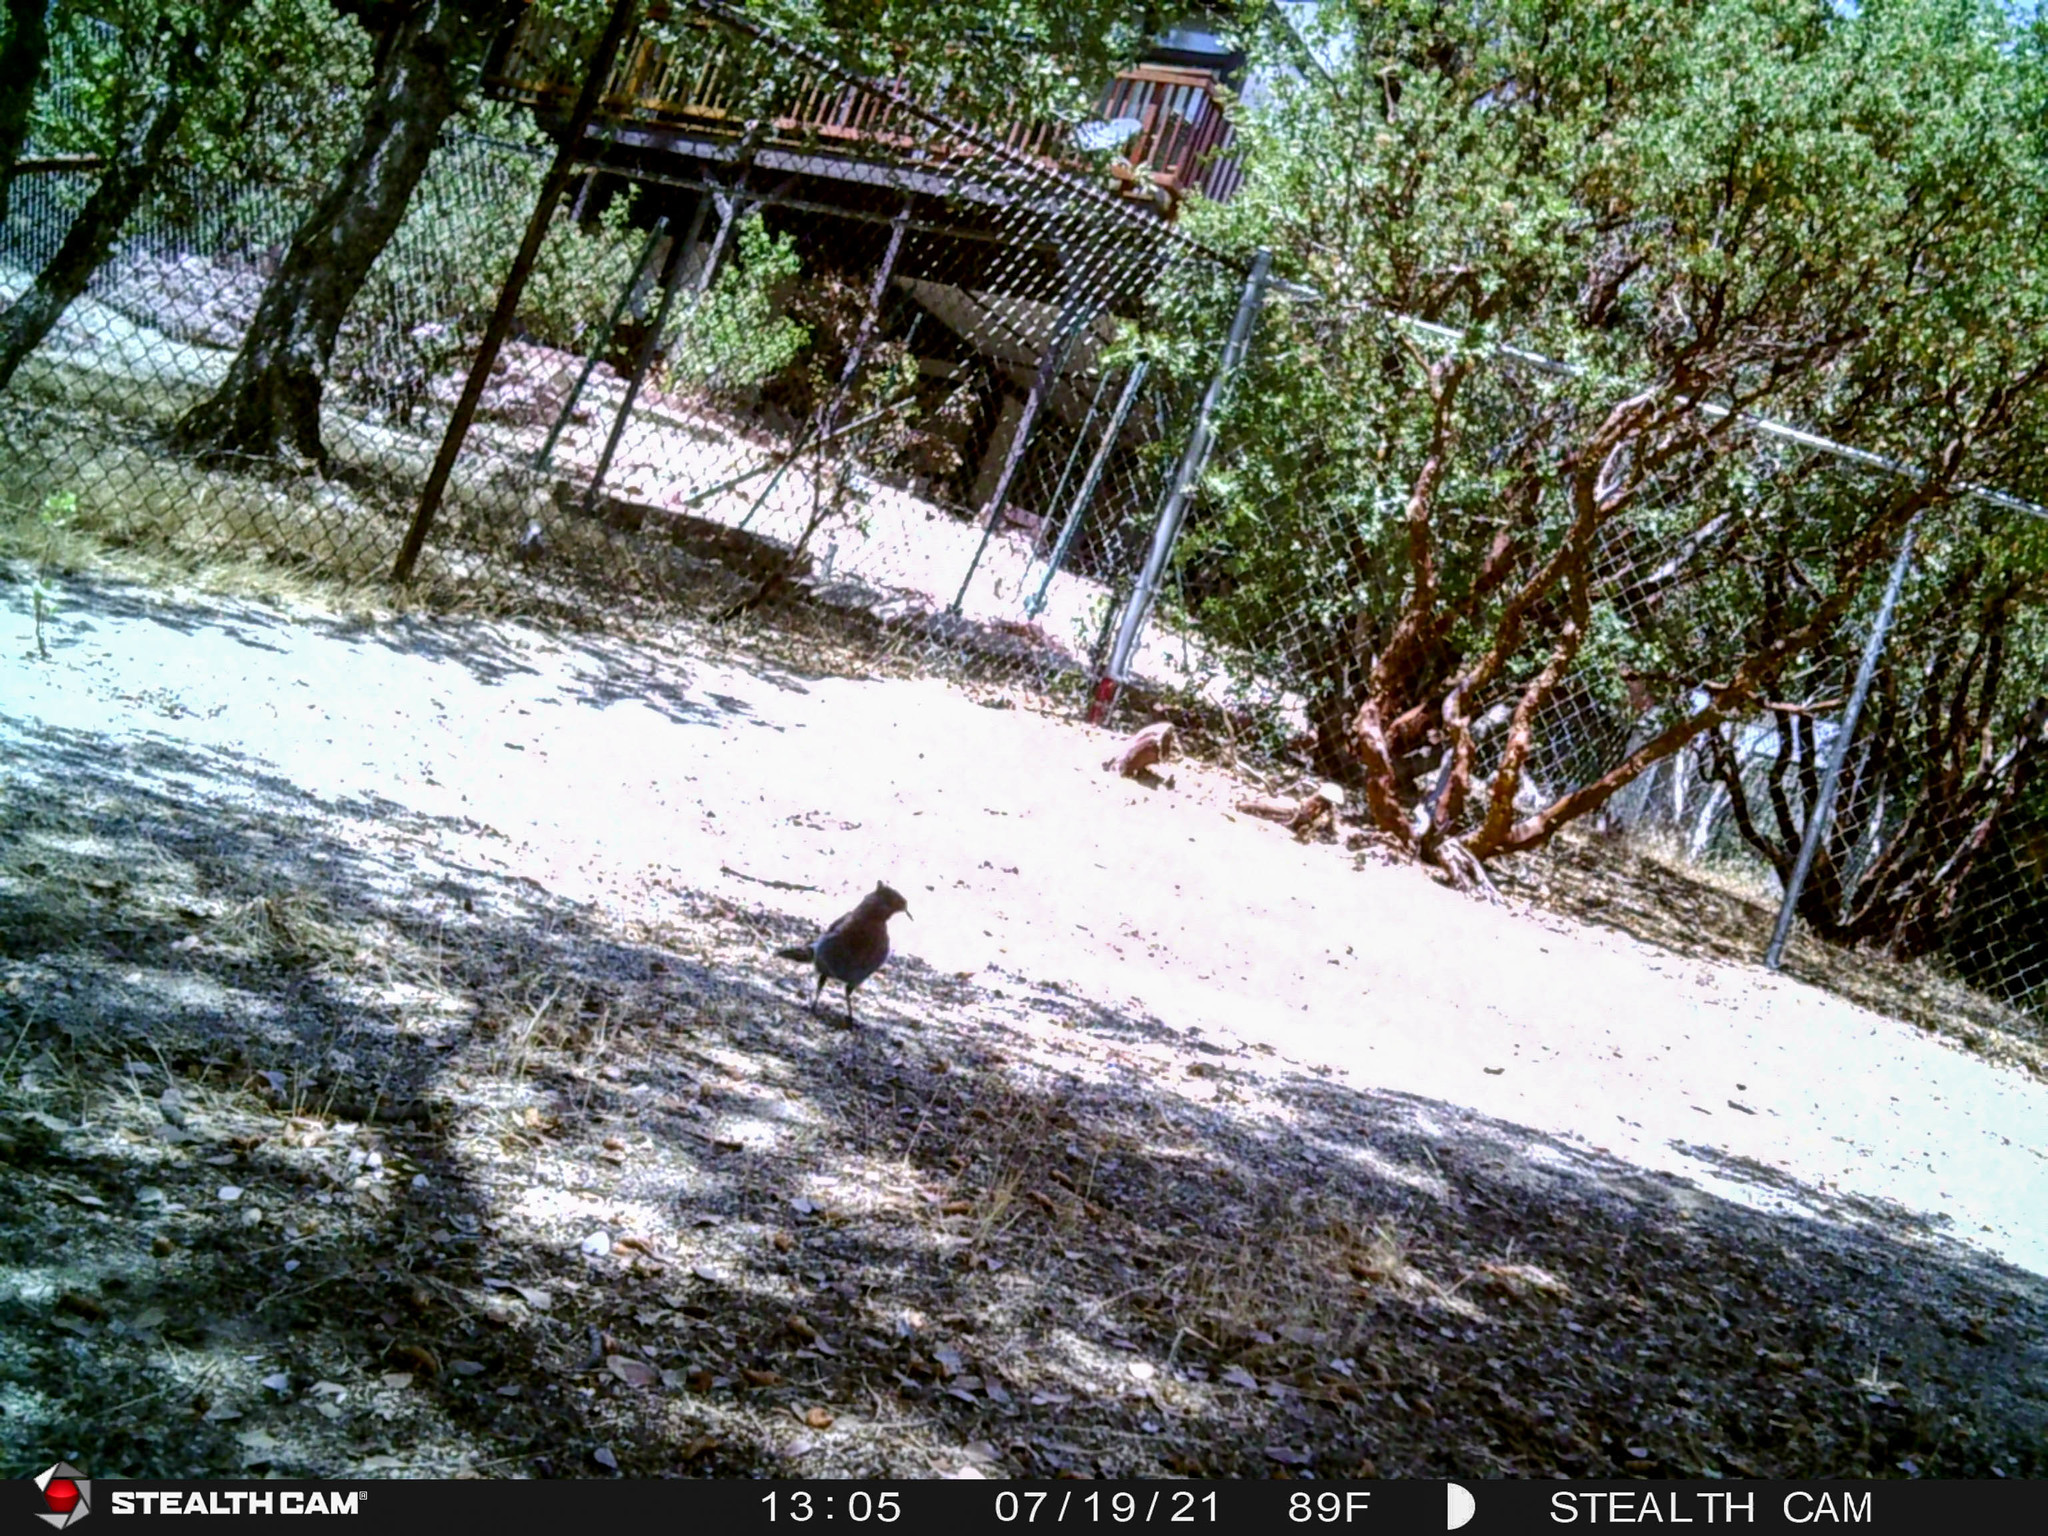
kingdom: Animalia
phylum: Chordata
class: Aves
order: Passeriformes
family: Corvidae
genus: Cyanocitta
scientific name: Cyanocitta stelleri
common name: Steller's jay
